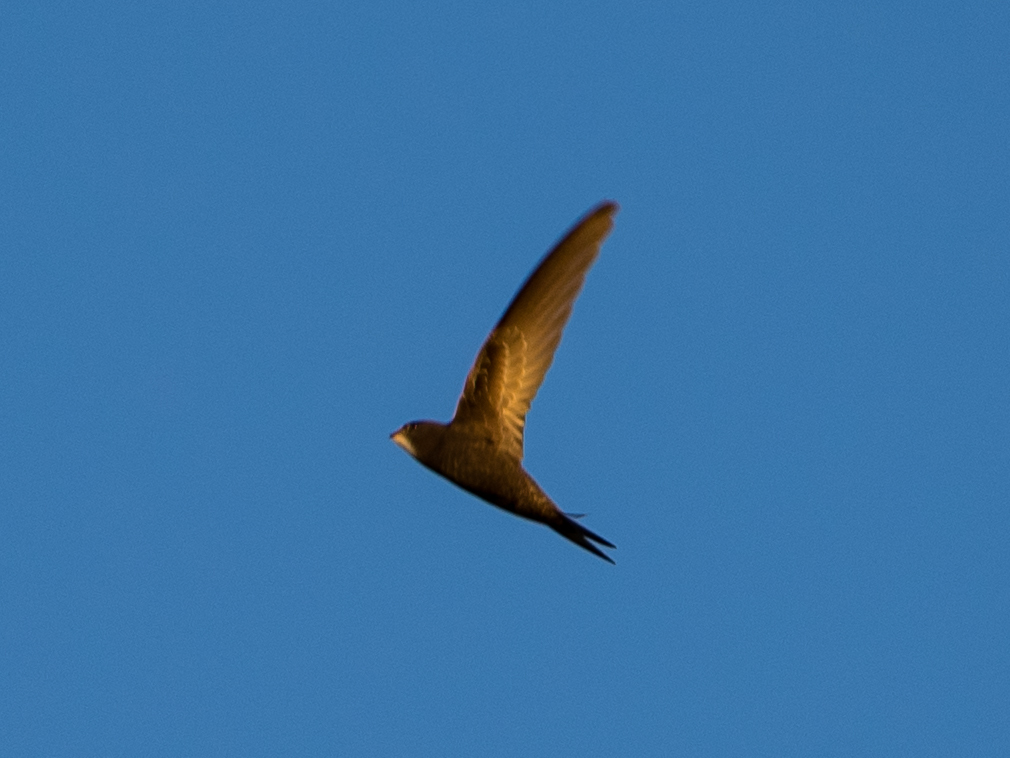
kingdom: Animalia
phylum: Chordata
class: Aves
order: Apodiformes
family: Apodidae
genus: Apus
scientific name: Apus apus
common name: Common swift
